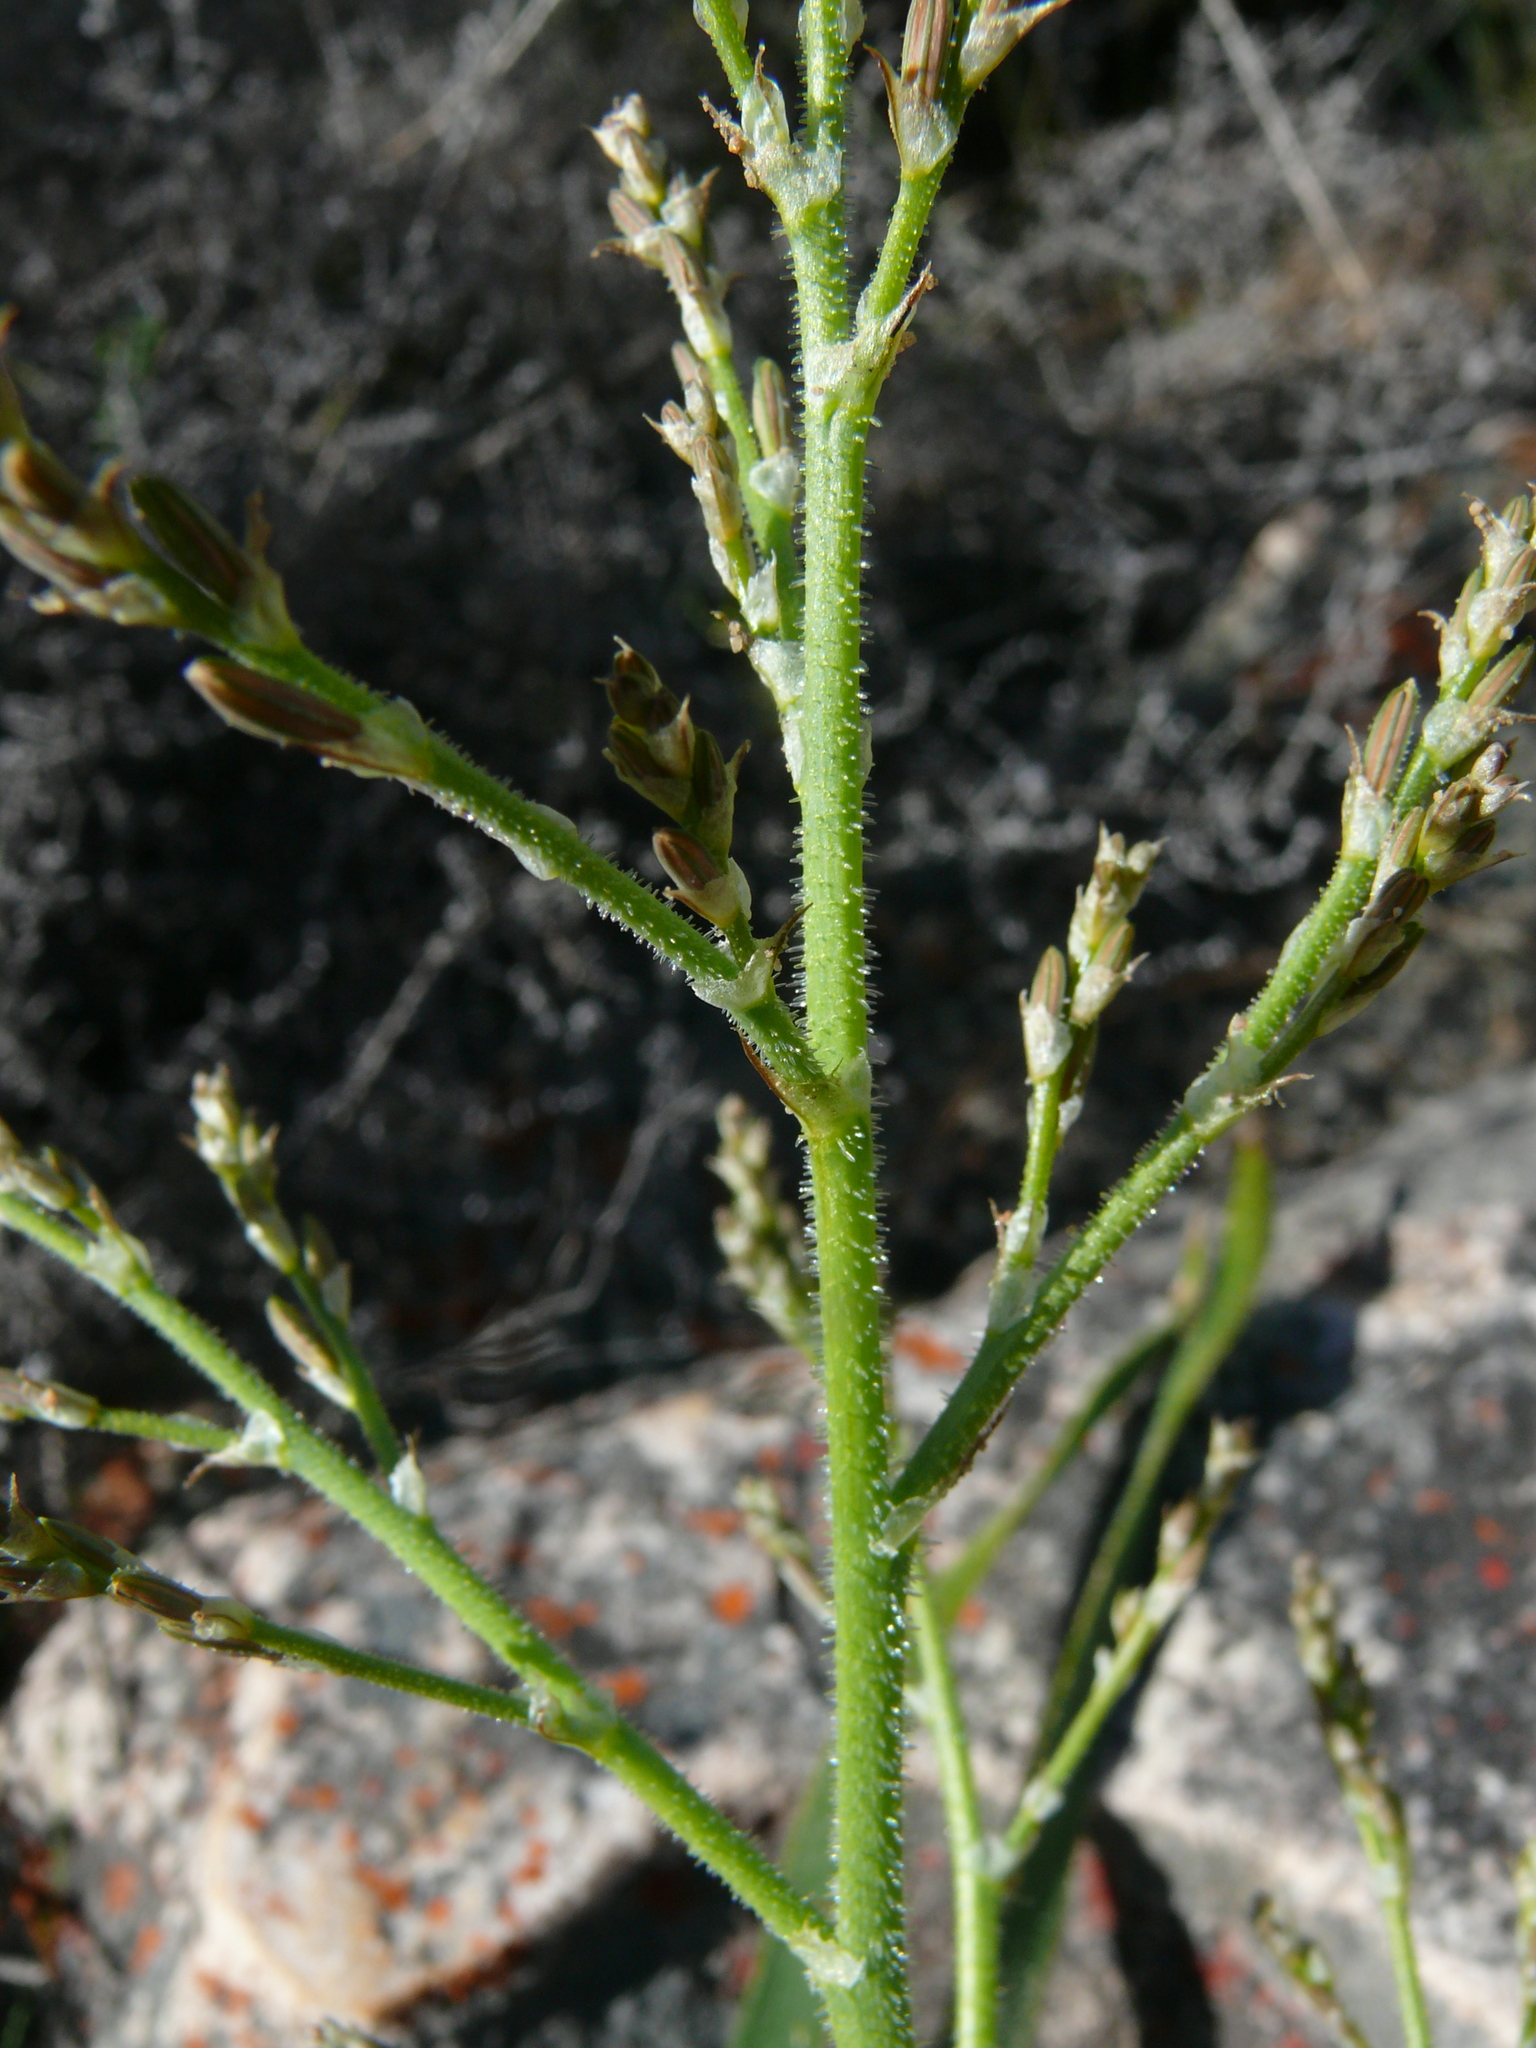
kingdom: Plantae
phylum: Tracheophyta
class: Liliopsida
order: Asparagales
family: Asphodelaceae
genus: Trachyandra
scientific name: Trachyandra revoluta
